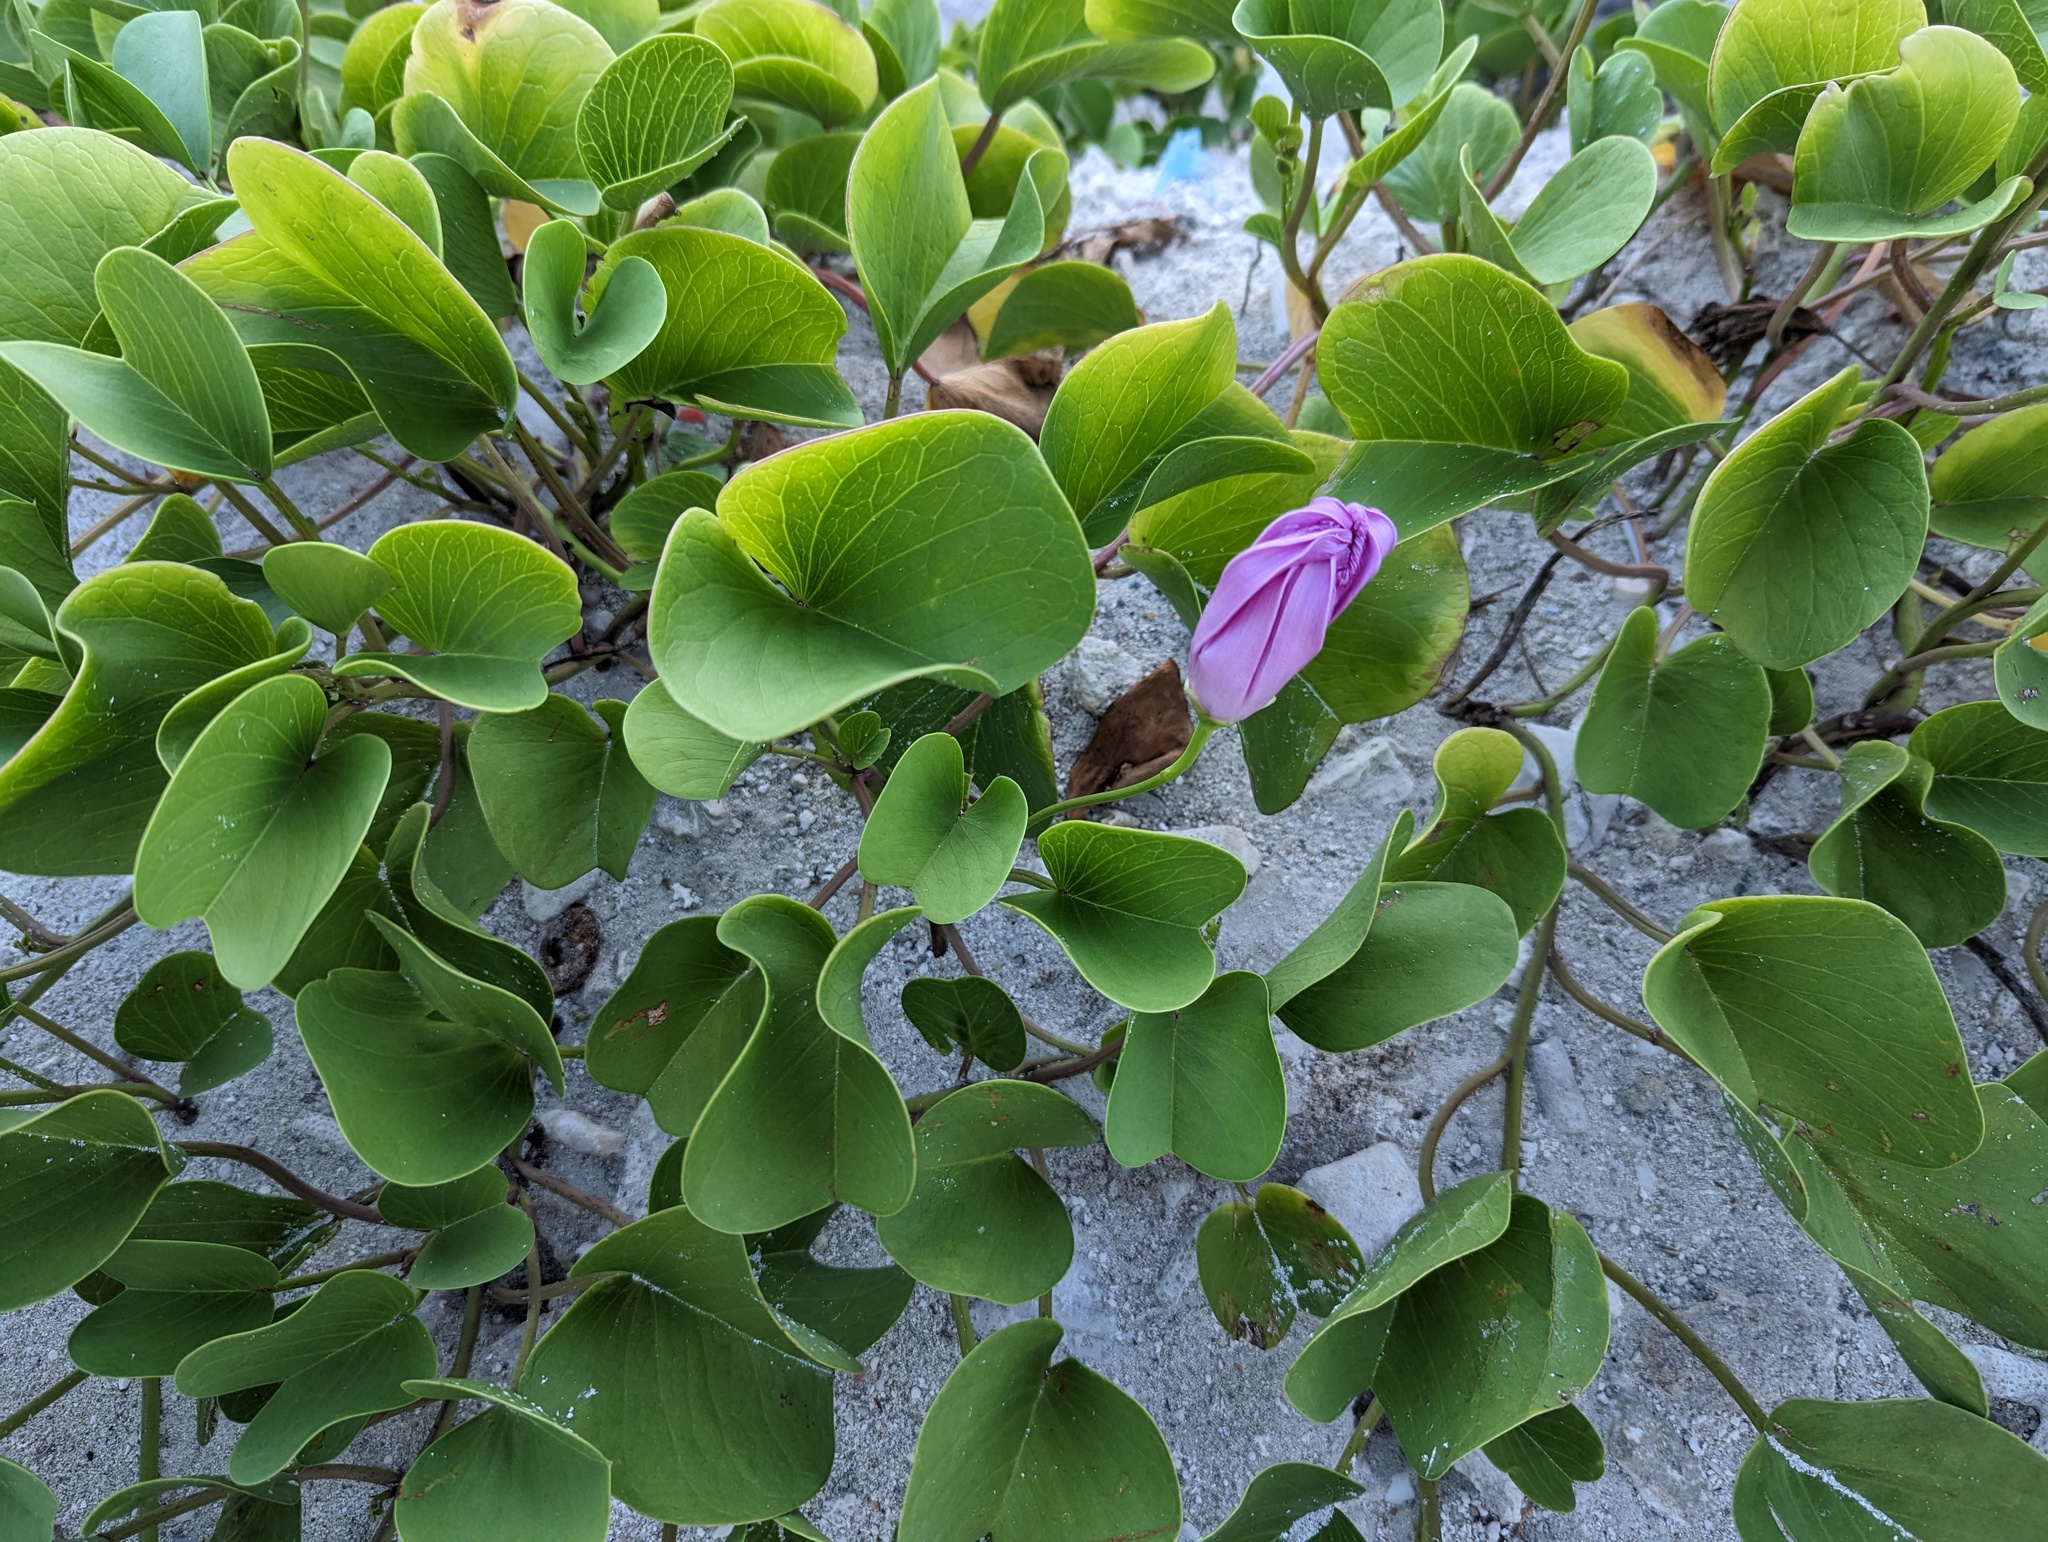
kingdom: Plantae
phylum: Tracheophyta
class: Magnoliopsida
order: Solanales
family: Convolvulaceae
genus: Ipomoea
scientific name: Ipomoea pes-caprae
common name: Beach morning glory
